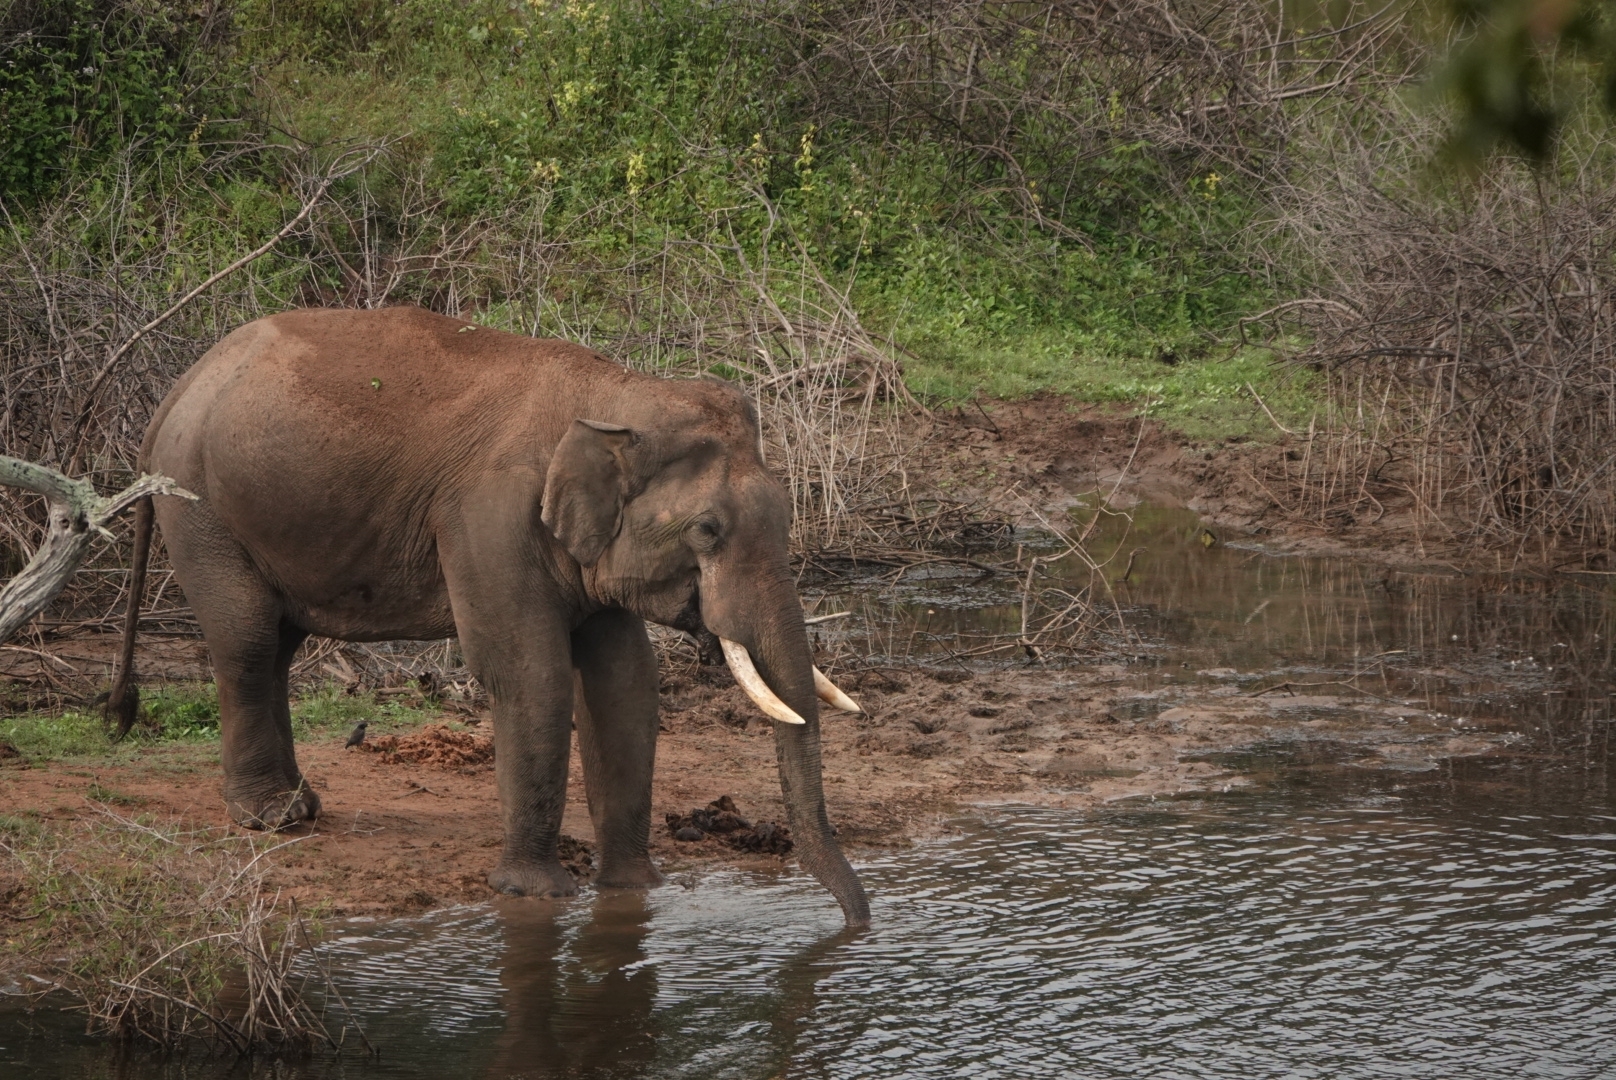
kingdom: Animalia
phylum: Chordata
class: Mammalia
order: Proboscidea
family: Elephantidae
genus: Elephas
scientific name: Elephas maximus
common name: Asian elephant
